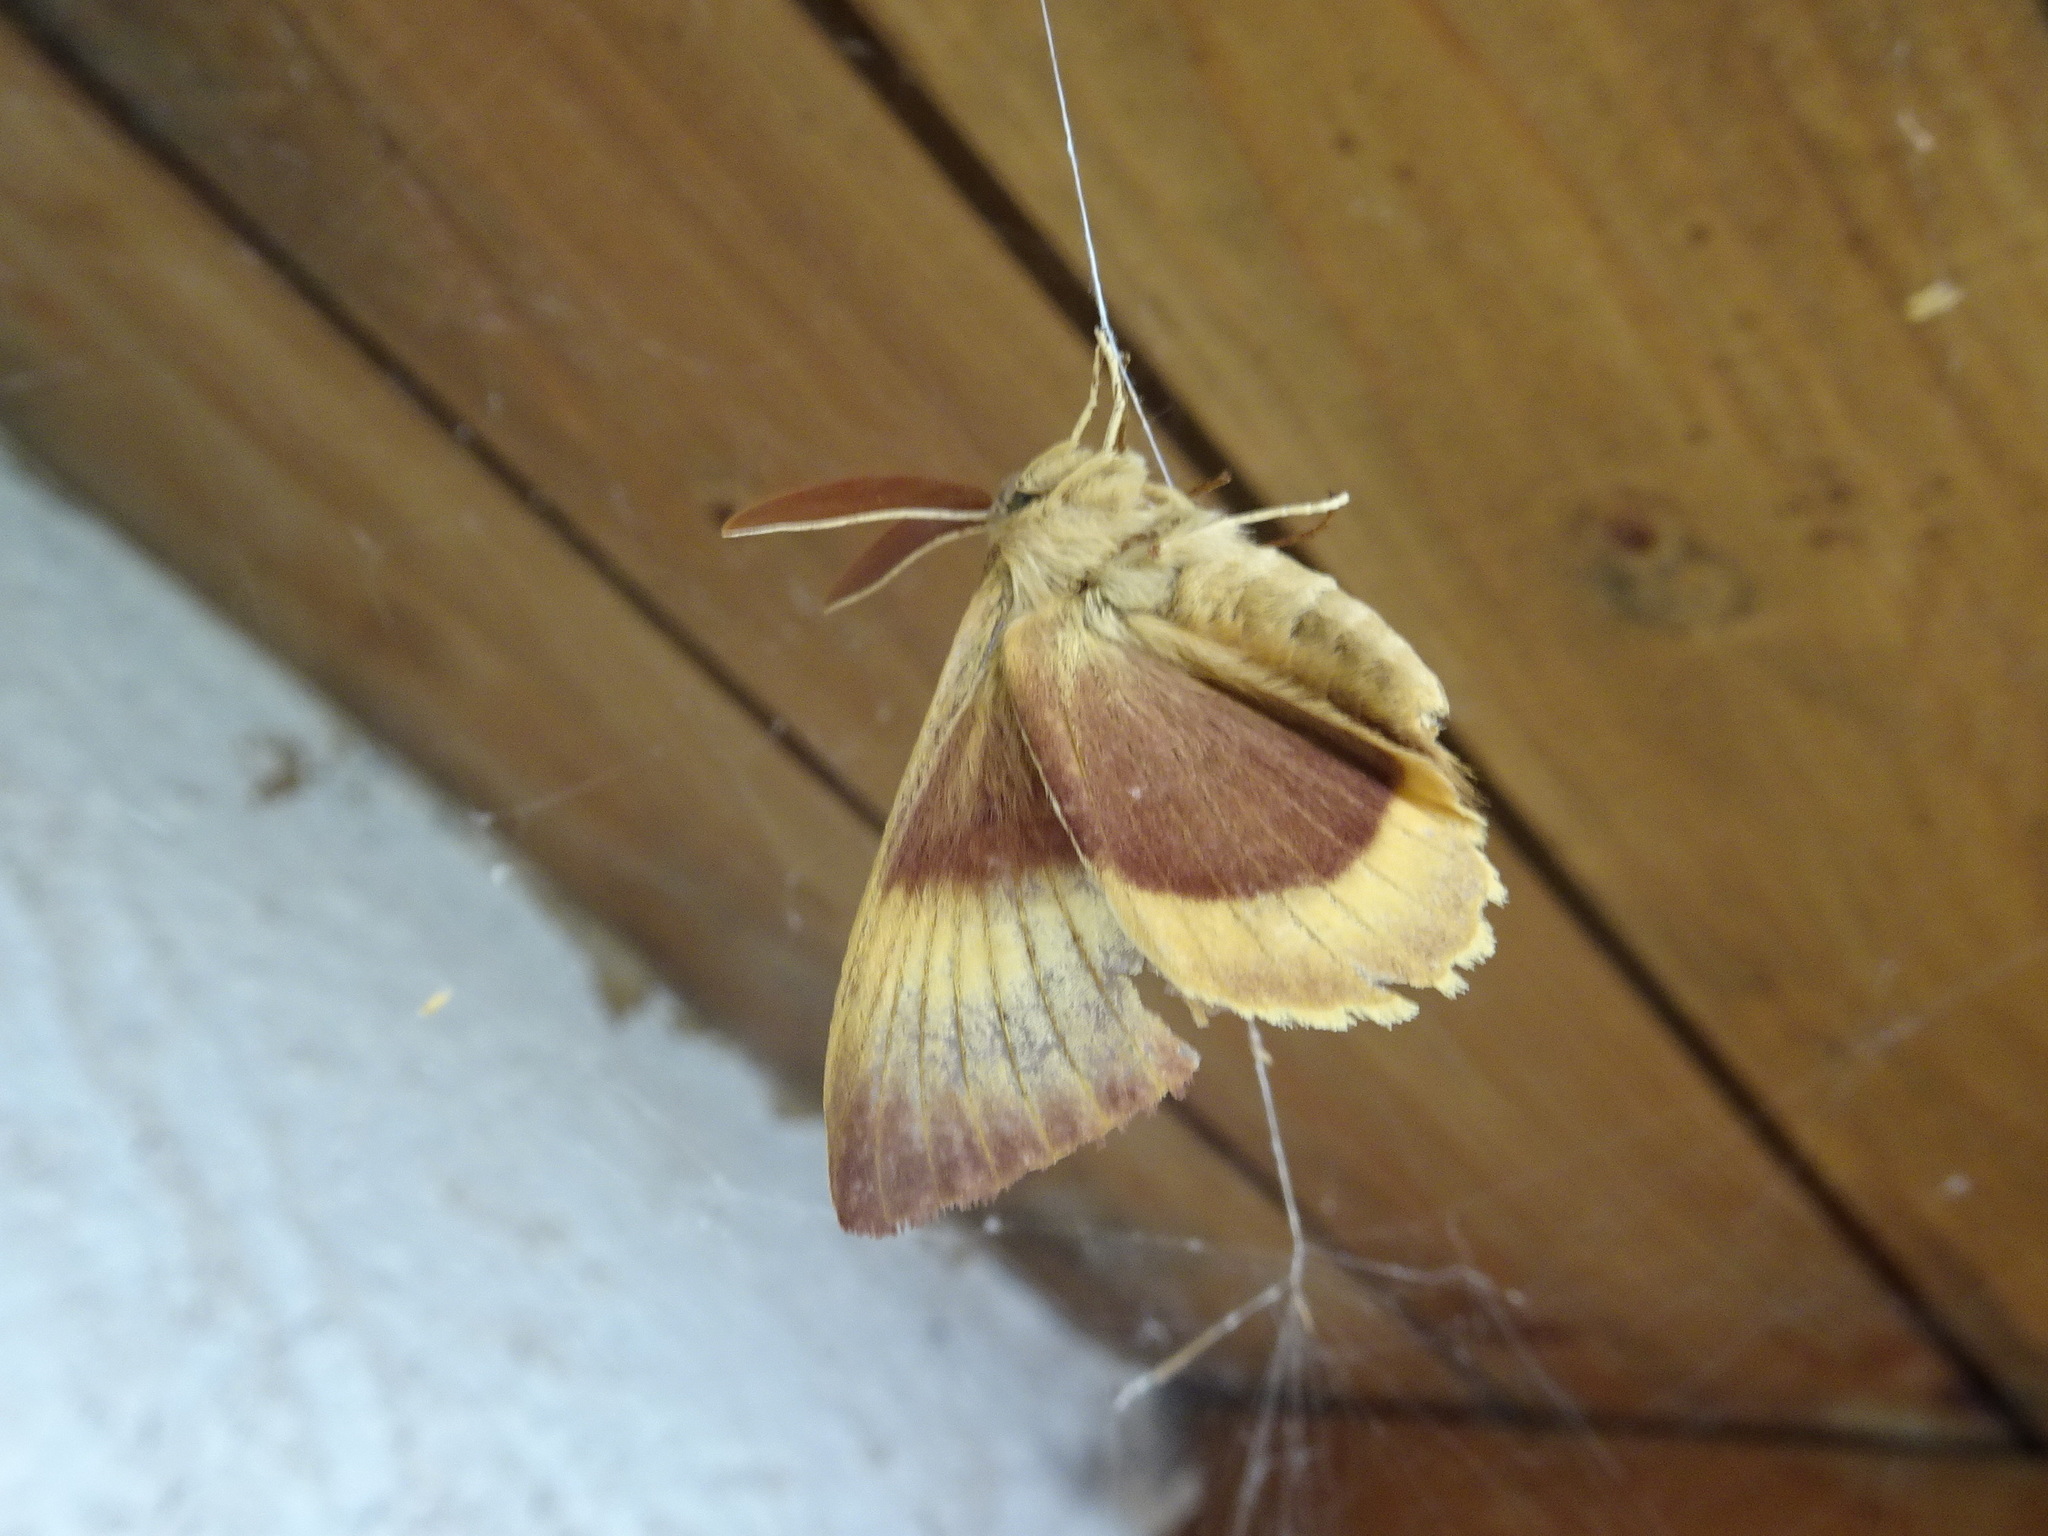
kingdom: Animalia
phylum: Arthropoda
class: Insecta
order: Lepidoptera
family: Lasiocampidae
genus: Lasiocampa
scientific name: Lasiocampa quercus
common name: Oak eggar
